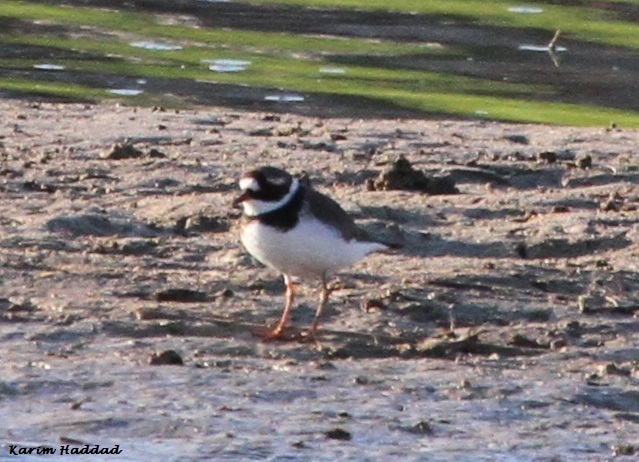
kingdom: Animalia
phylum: Chordata
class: Aves
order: Charadriiformes
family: Charadriidae
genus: Charadrius
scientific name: Charadrius hiaticula
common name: Common ringed plover
